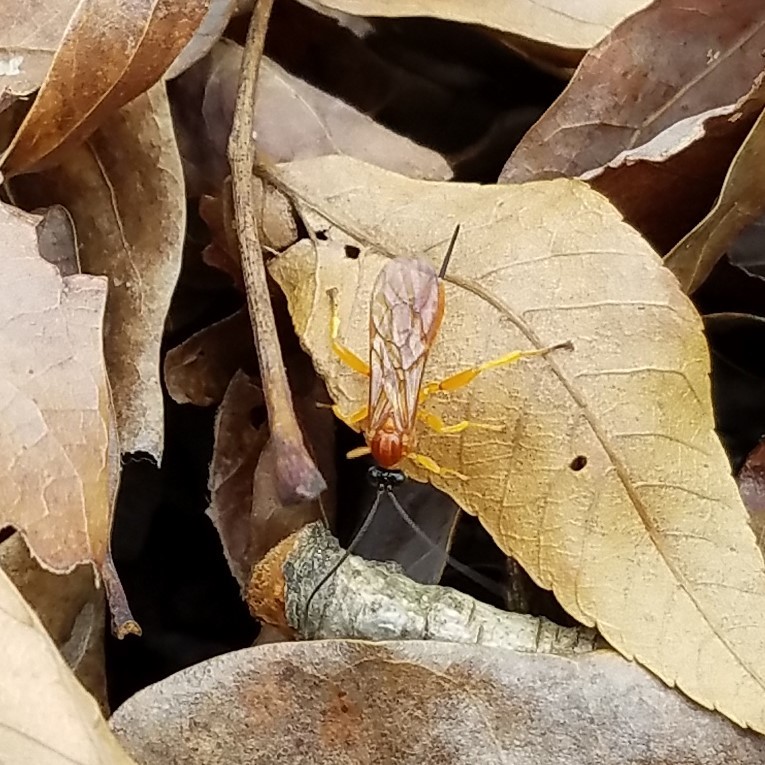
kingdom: Animalia
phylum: Arthropoda
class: Insecta
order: Hymenoptera
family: Ichneumonidae
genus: Theronia
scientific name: Theronia hilaris
